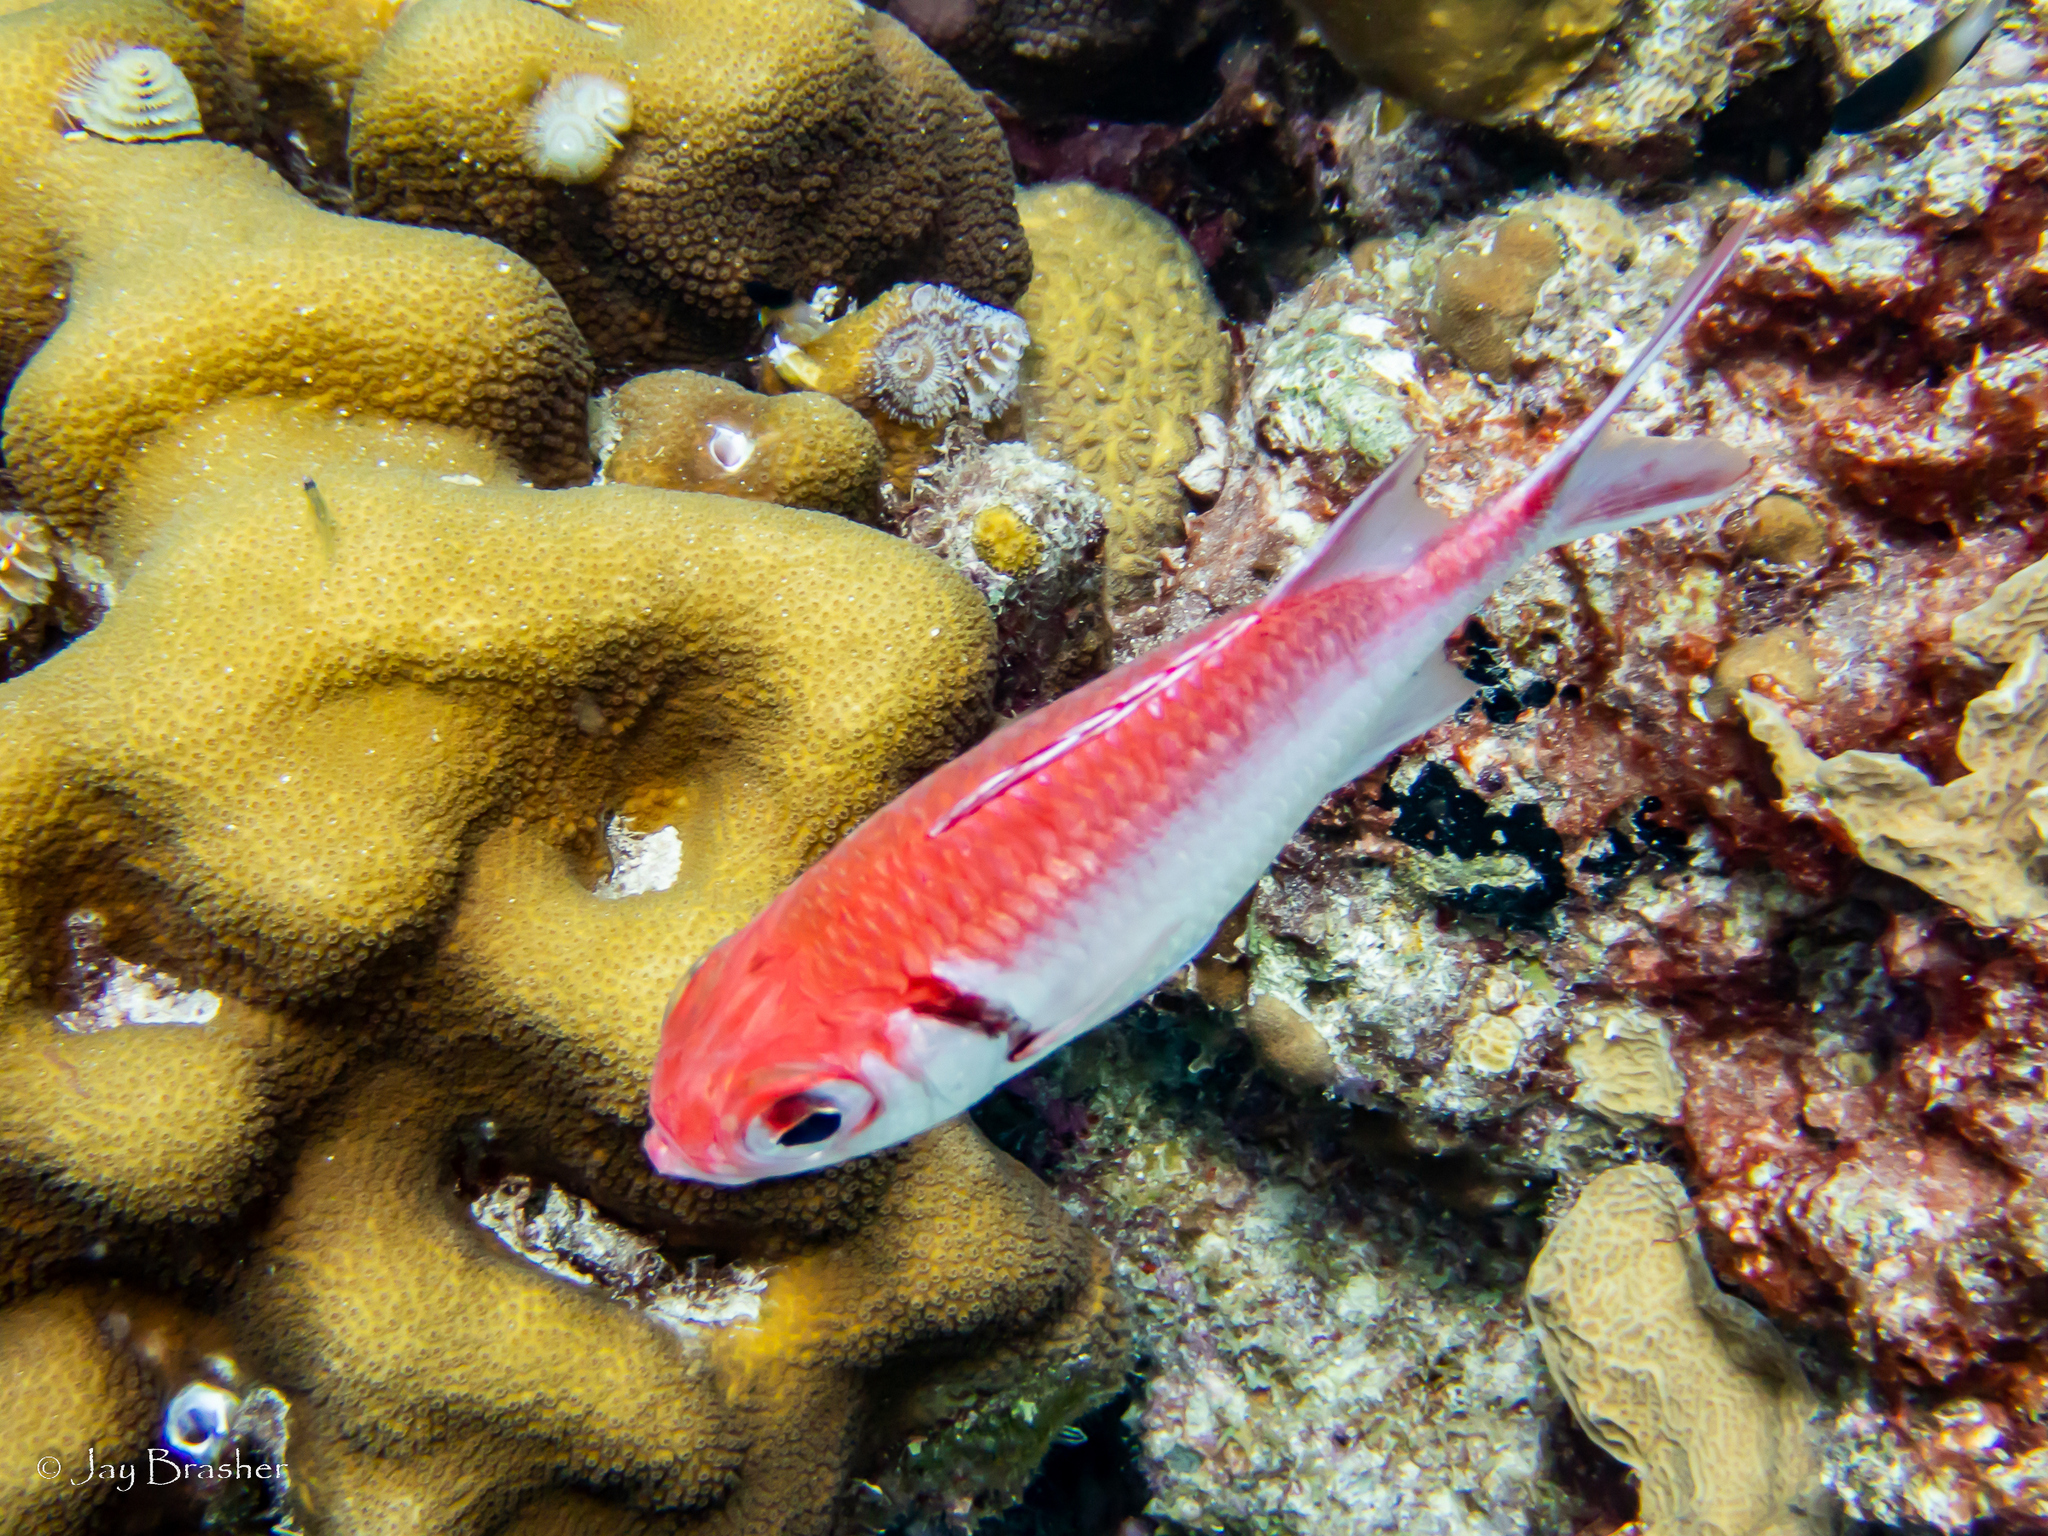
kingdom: Animalia
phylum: Chordata
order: Beryciformes
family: Holocentridae
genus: Myripristis
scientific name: Myripristis jacobus
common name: Blackbar soldierfish
